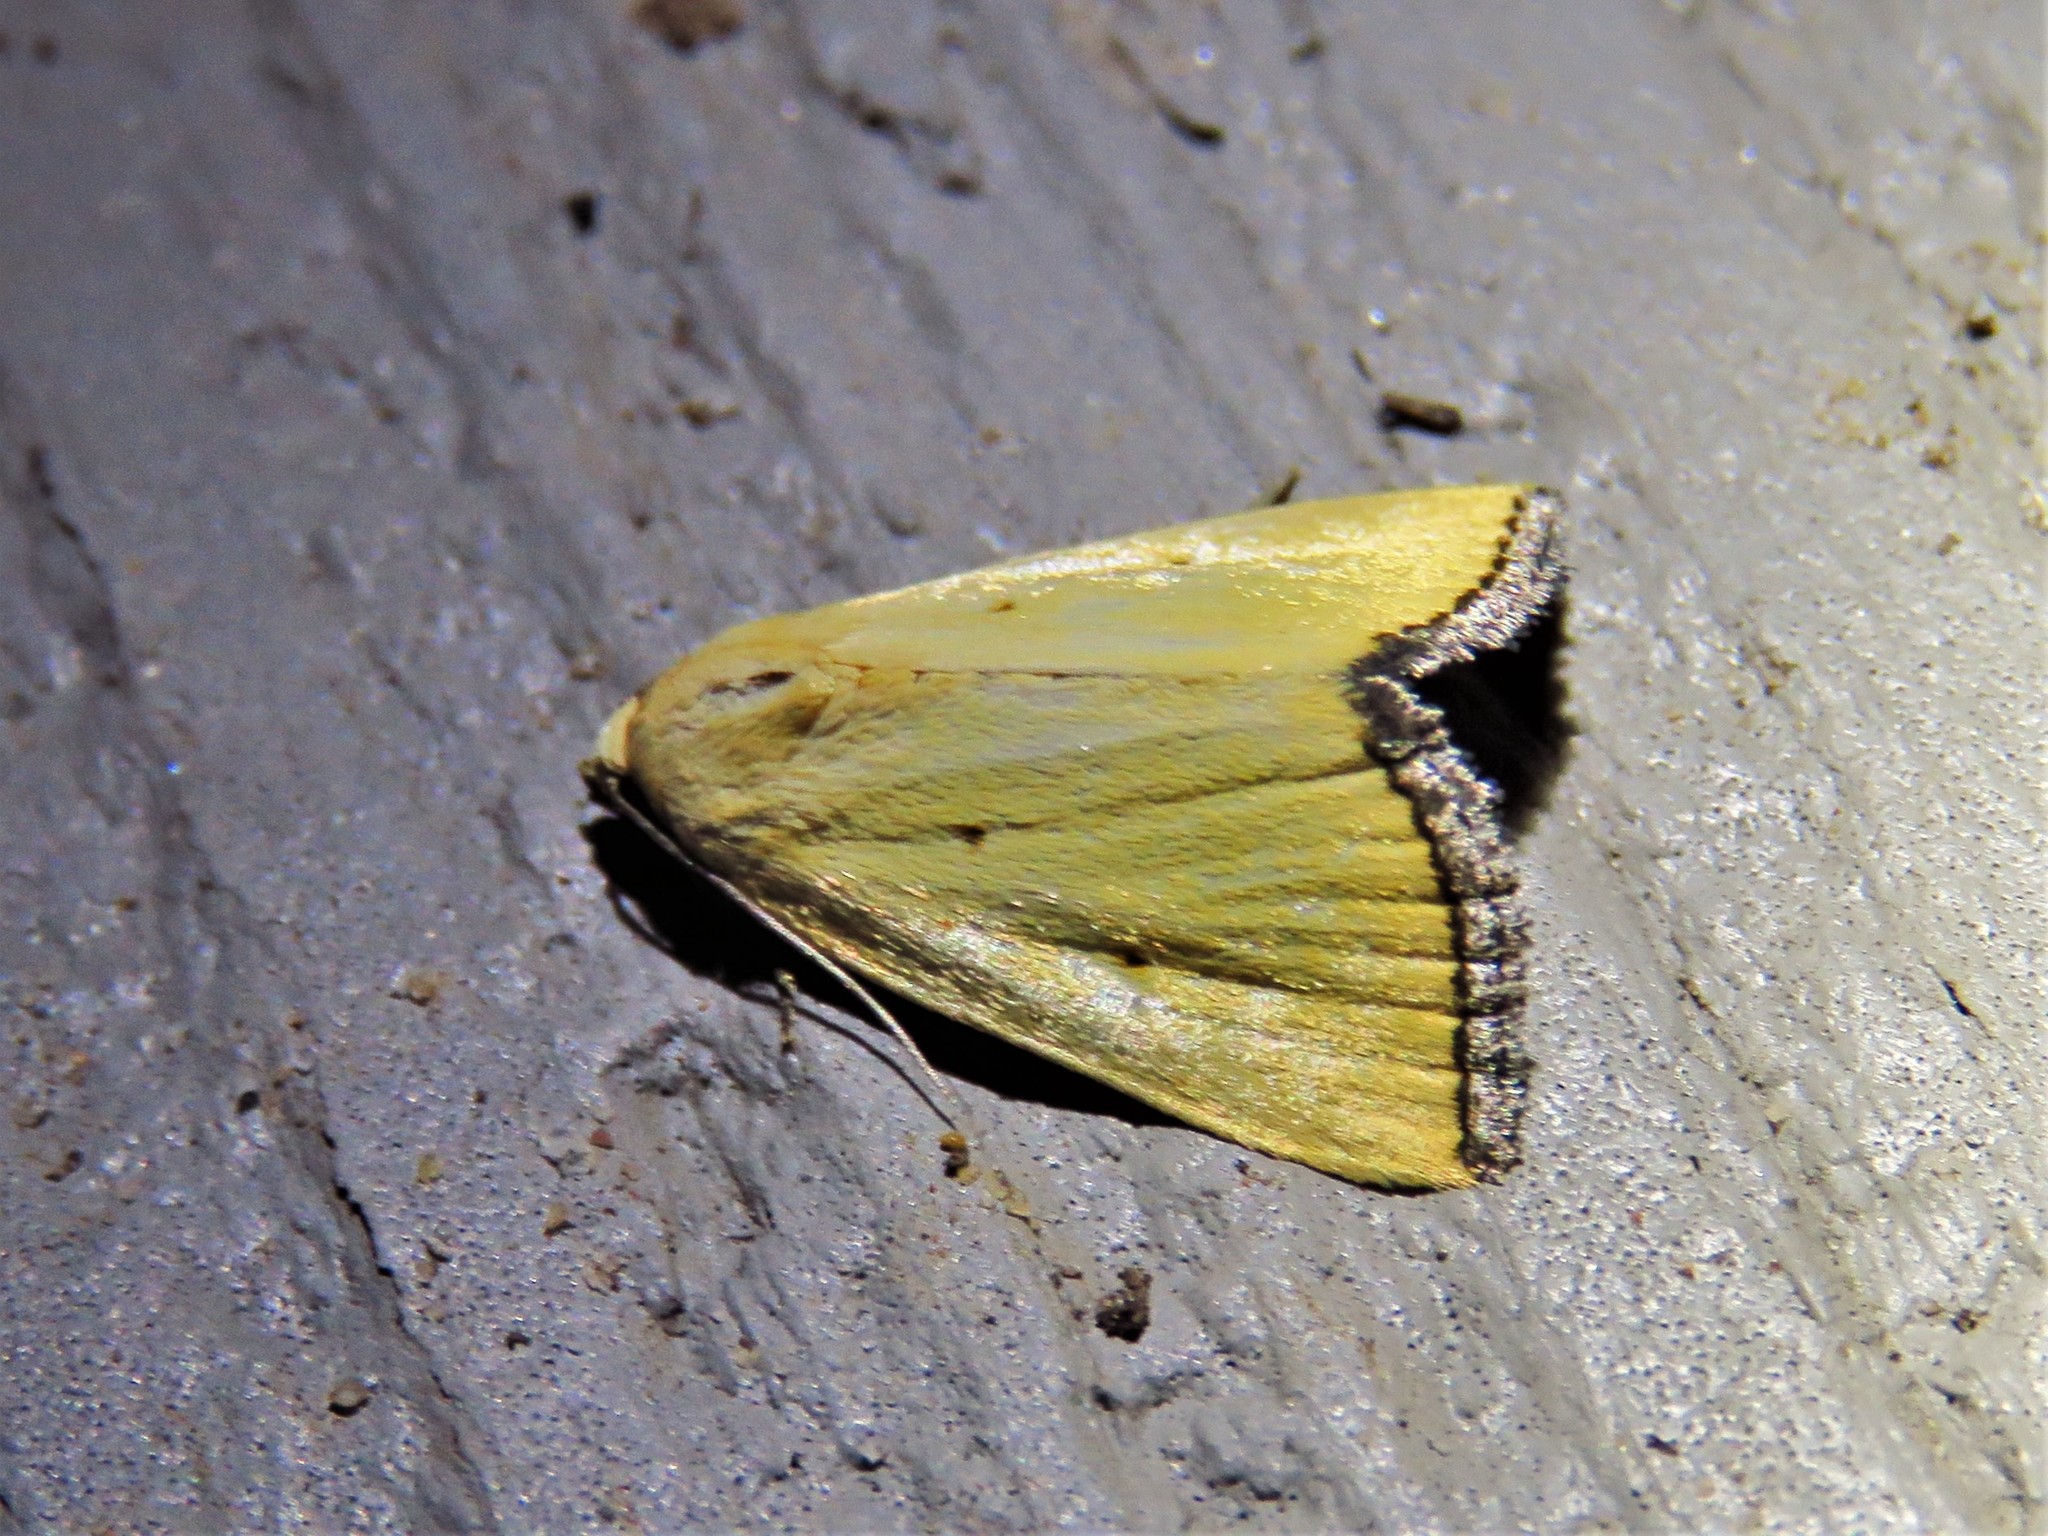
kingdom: Animalia
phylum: Arthropoda
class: Insecta
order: Lepidoptera
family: Noctuidae
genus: Marimatha
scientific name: Marimatha nigrofimbria
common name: Black-bordered lemon moth
